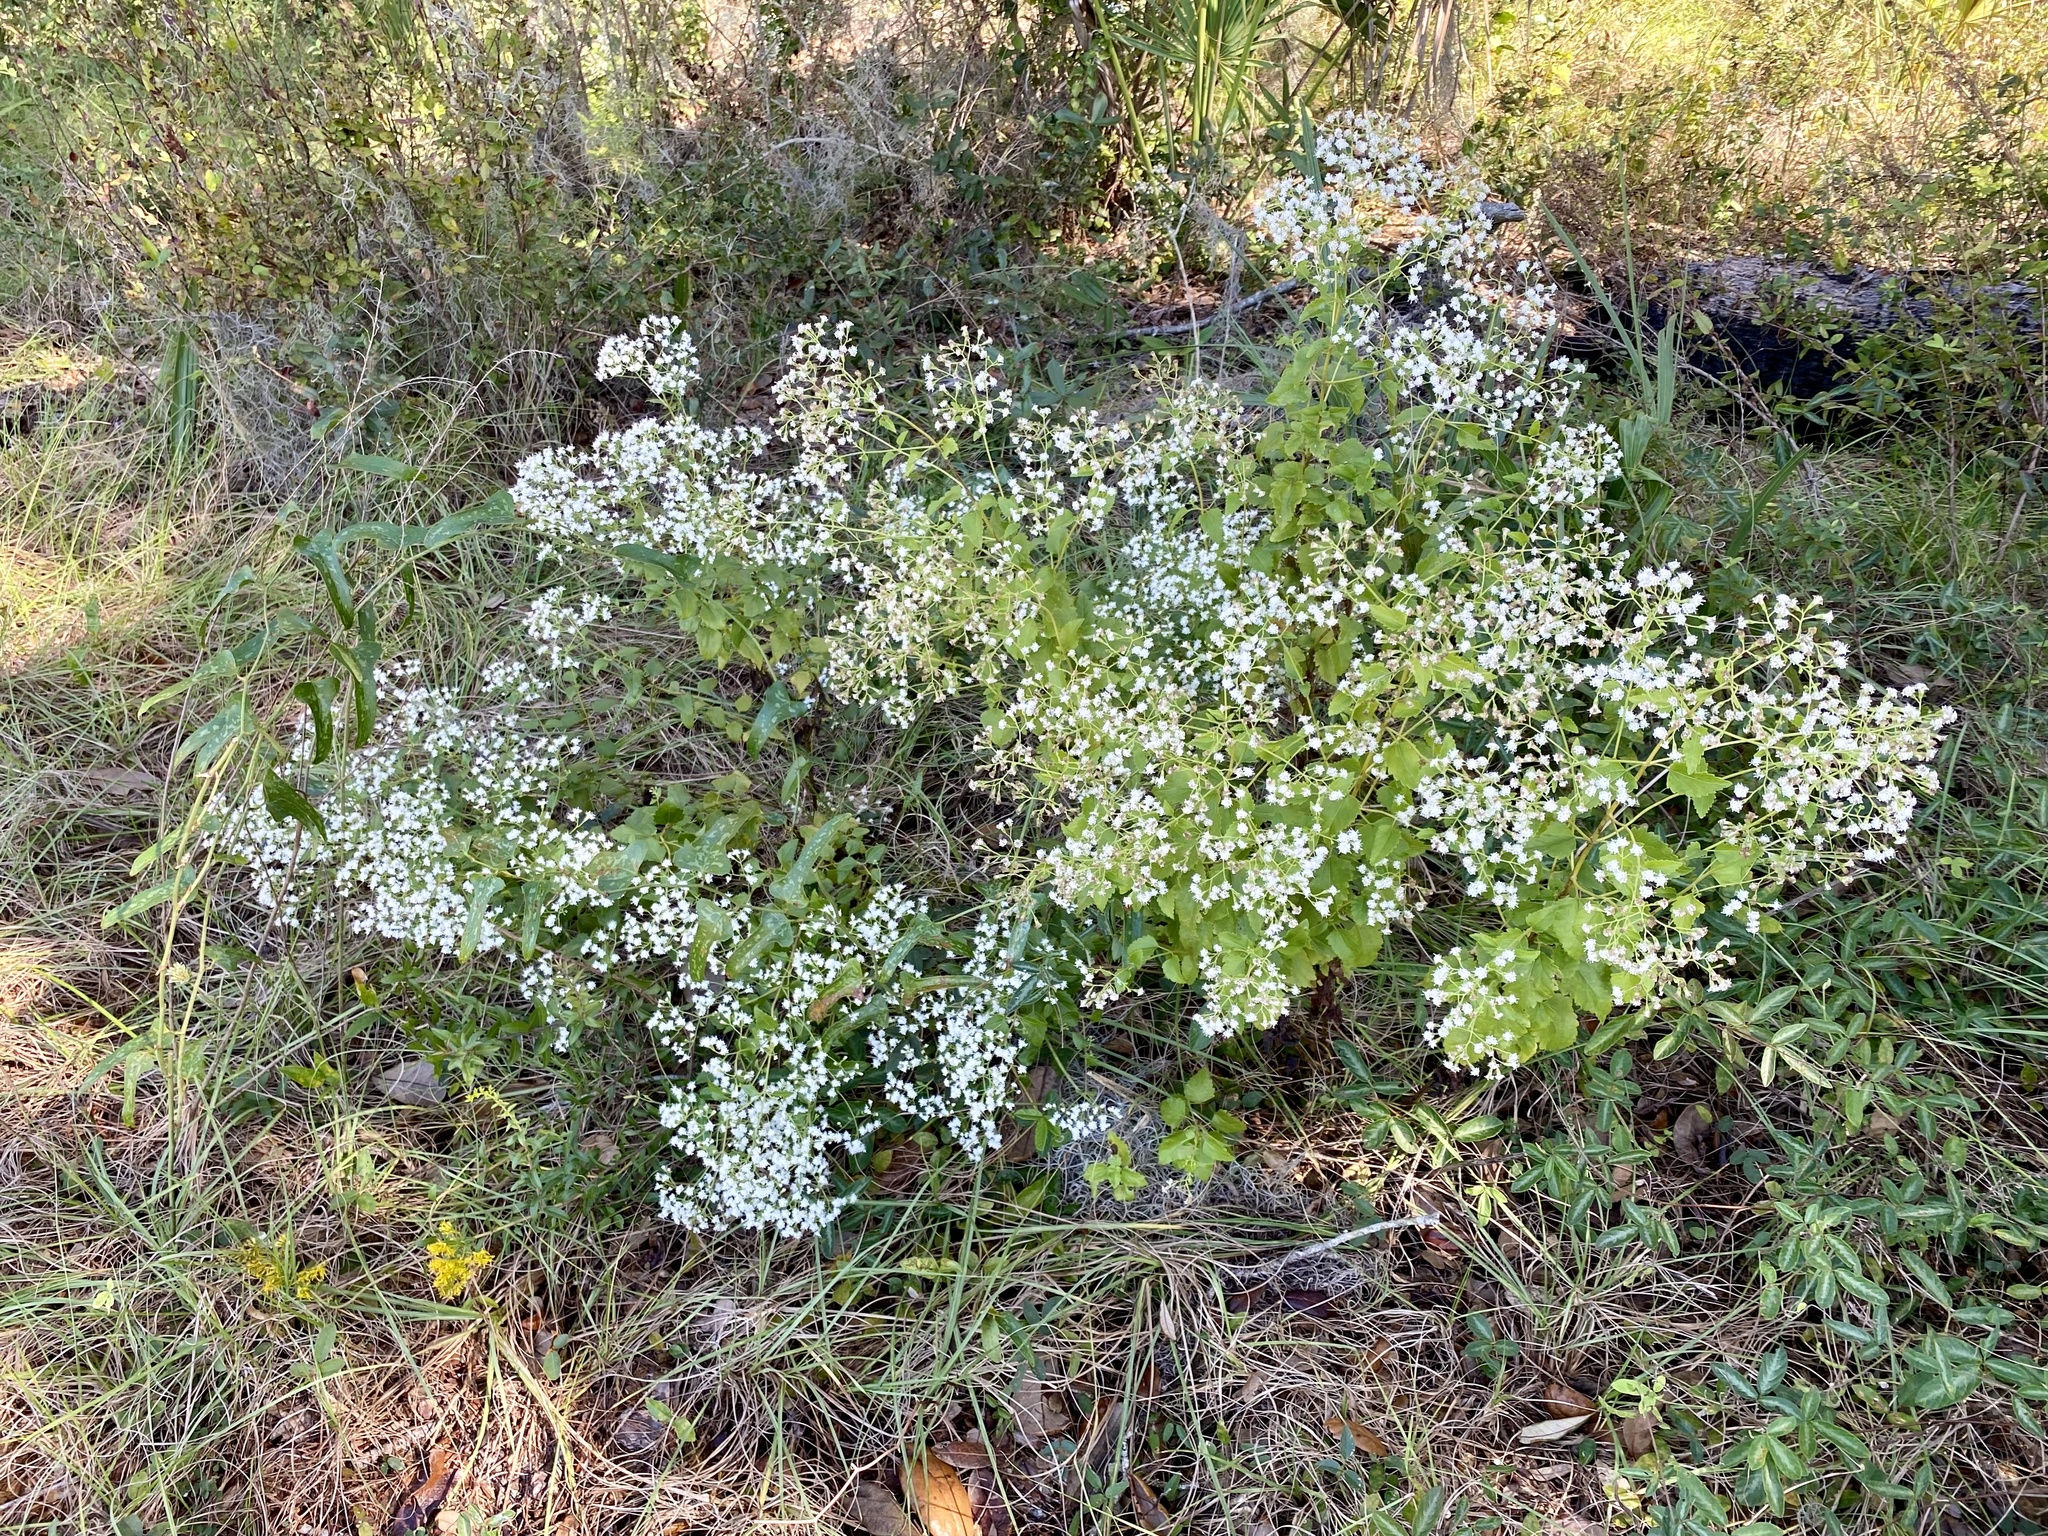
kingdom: Plantae
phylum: Tracheophyta
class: Magnoliopsida
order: Asterales
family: Asteraceae
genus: Ageratina
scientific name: Ageratina jucunda
